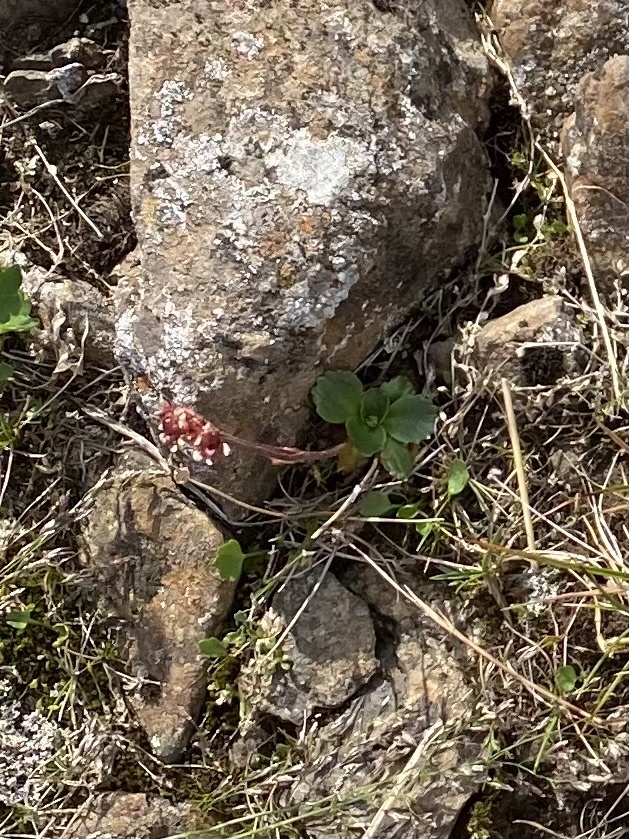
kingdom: Plantae
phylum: Tracheophyta
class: Magnoliopsida
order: Saxifragales
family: Saxifragaceae
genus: Micranthes
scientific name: Micranthes nivalis
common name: Alpine saxifrage
